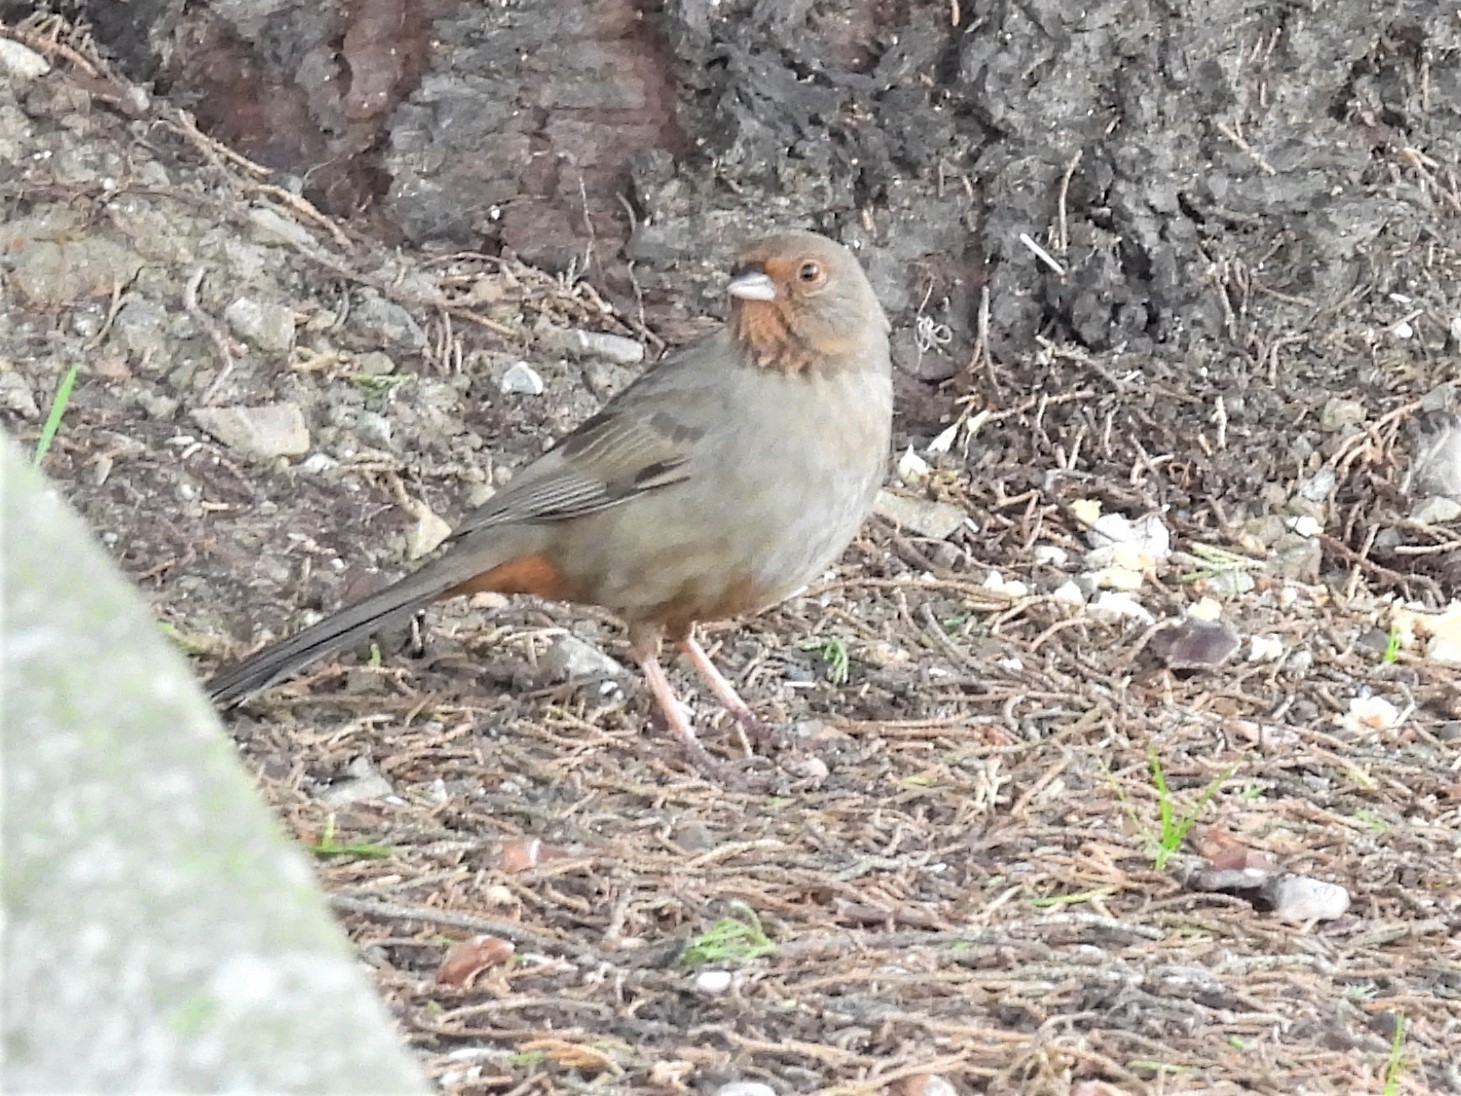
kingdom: Animalia
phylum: Chordata
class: Aves
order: Passeriformes
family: Passerellidae
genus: Melozone
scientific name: Melozone crissalis
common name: California towhee
